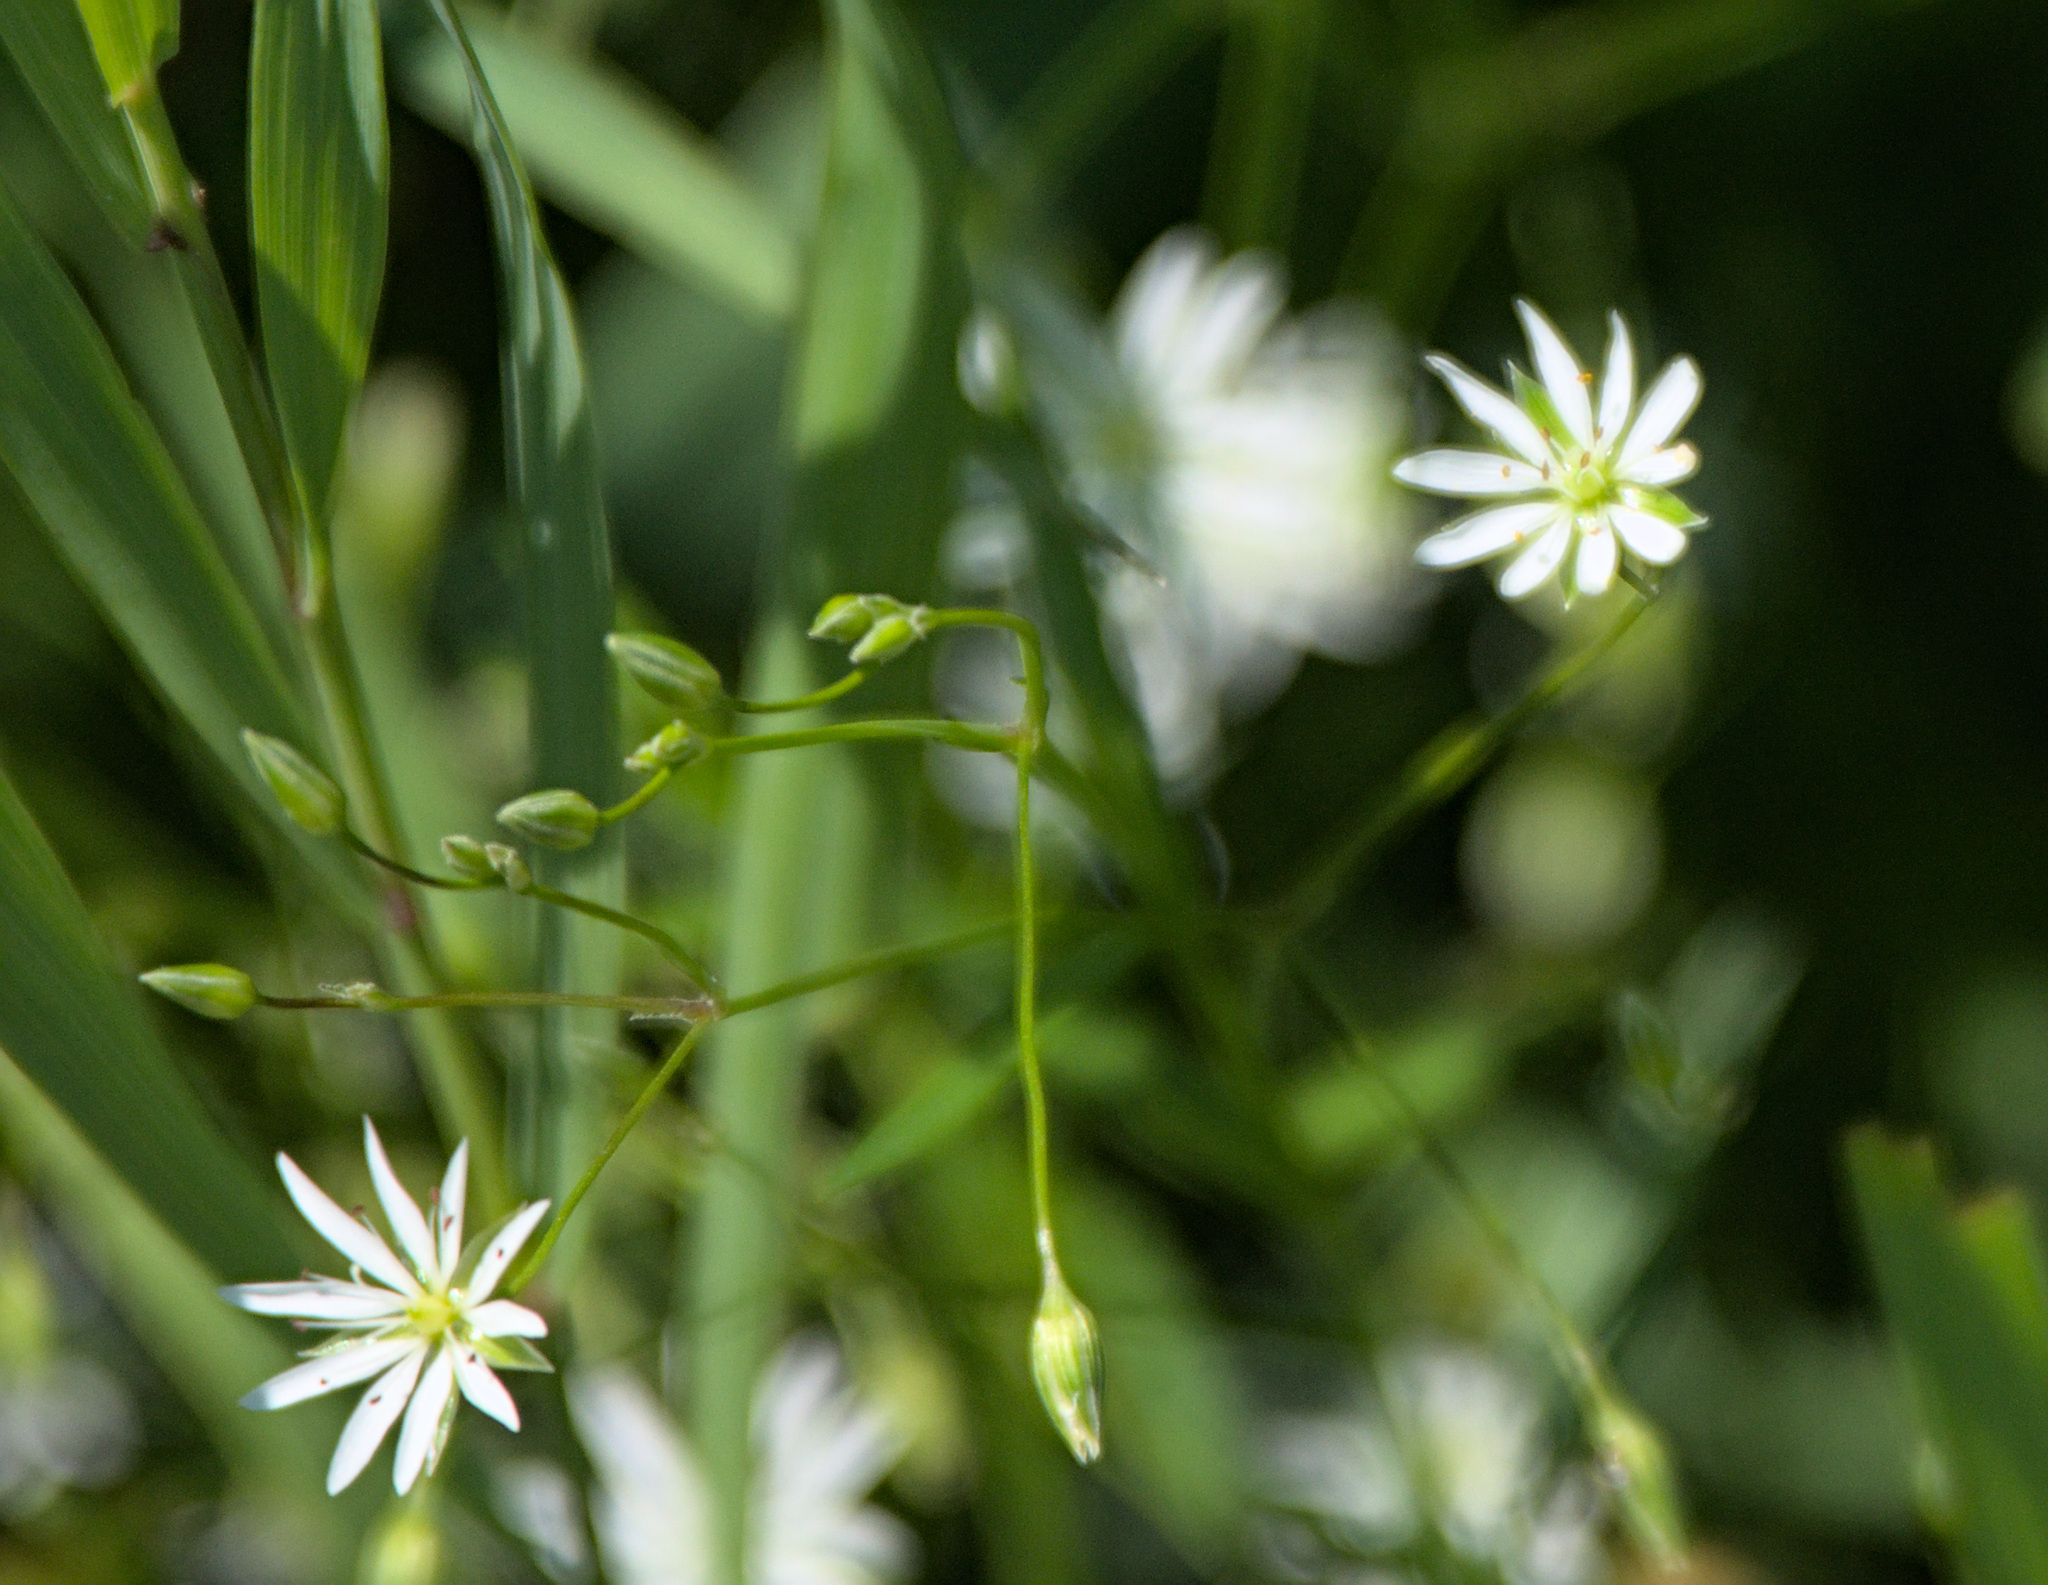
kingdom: Plantae
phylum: Tracheophyta
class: Magnoliopsida
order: Caryophyllales
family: Caryophyllaceae
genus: Stellaria
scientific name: Stellaria graminea
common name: Grass-like starwort
